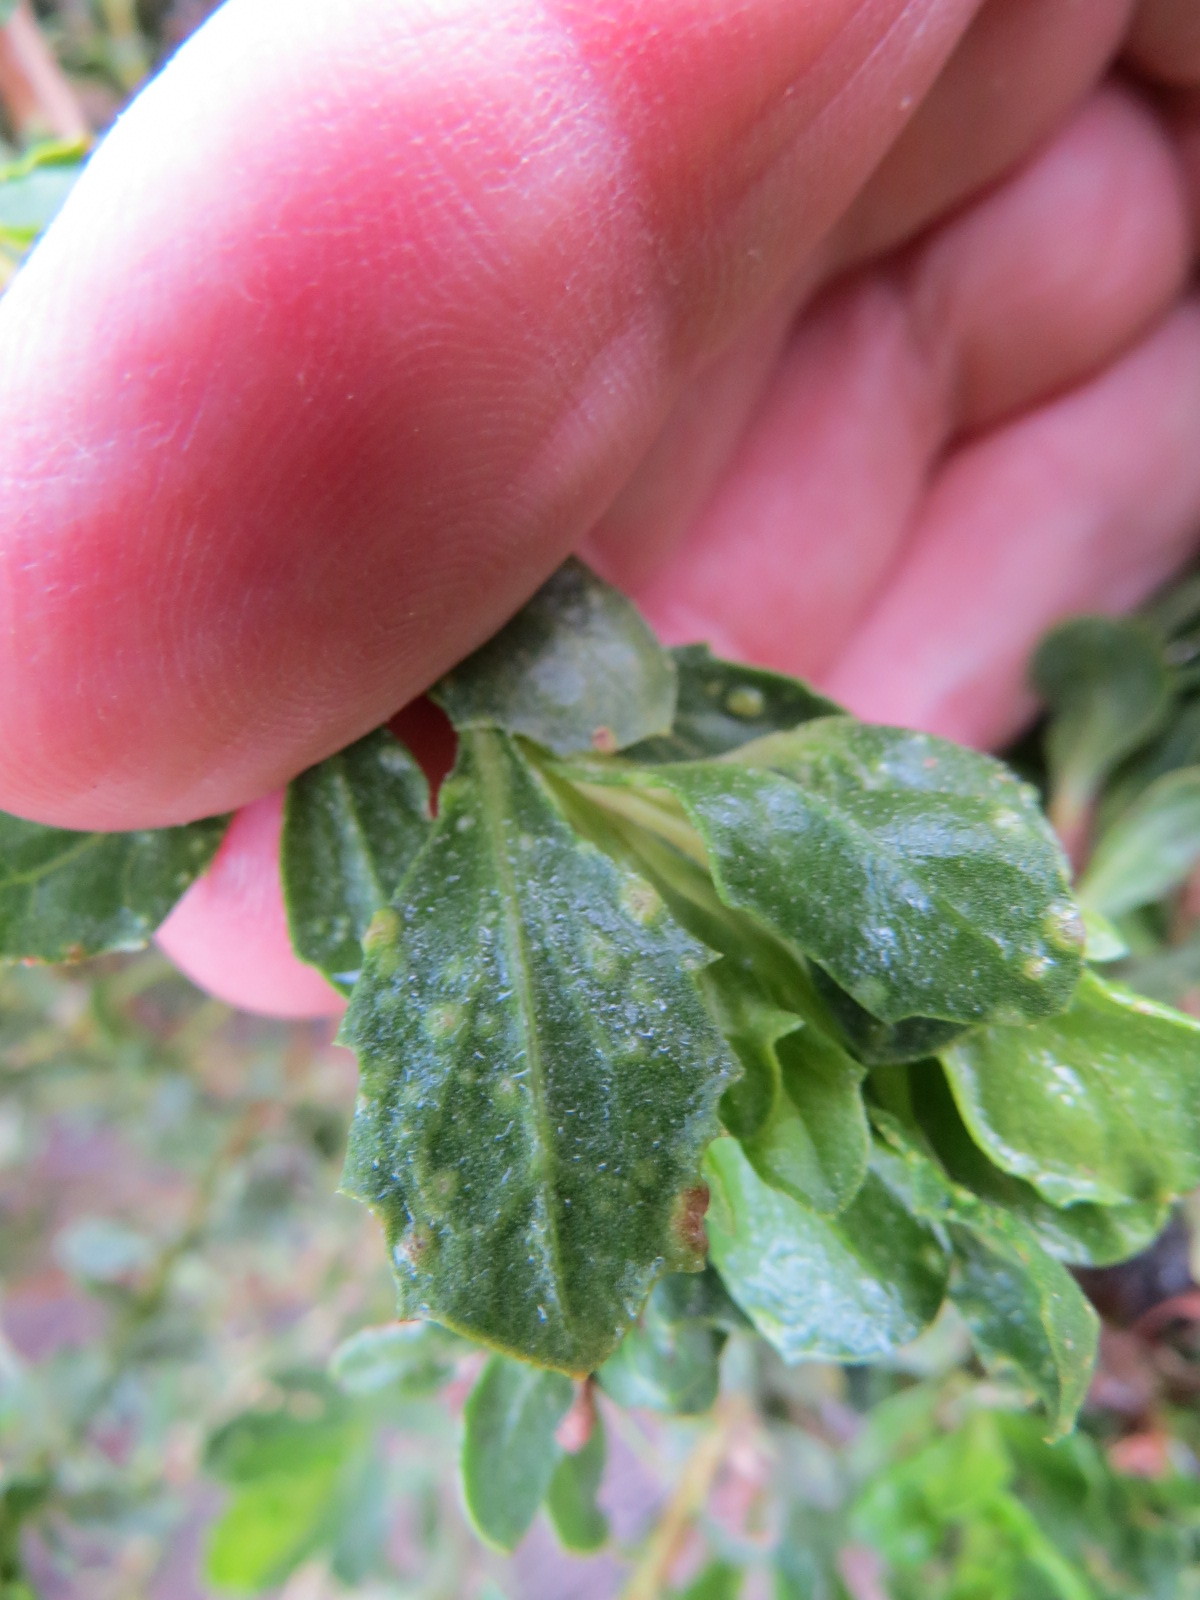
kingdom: Animalia
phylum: Arthropoda
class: Arachnida
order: Trombidiformes
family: Eriophyidae
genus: Aceria
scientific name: Aceria
